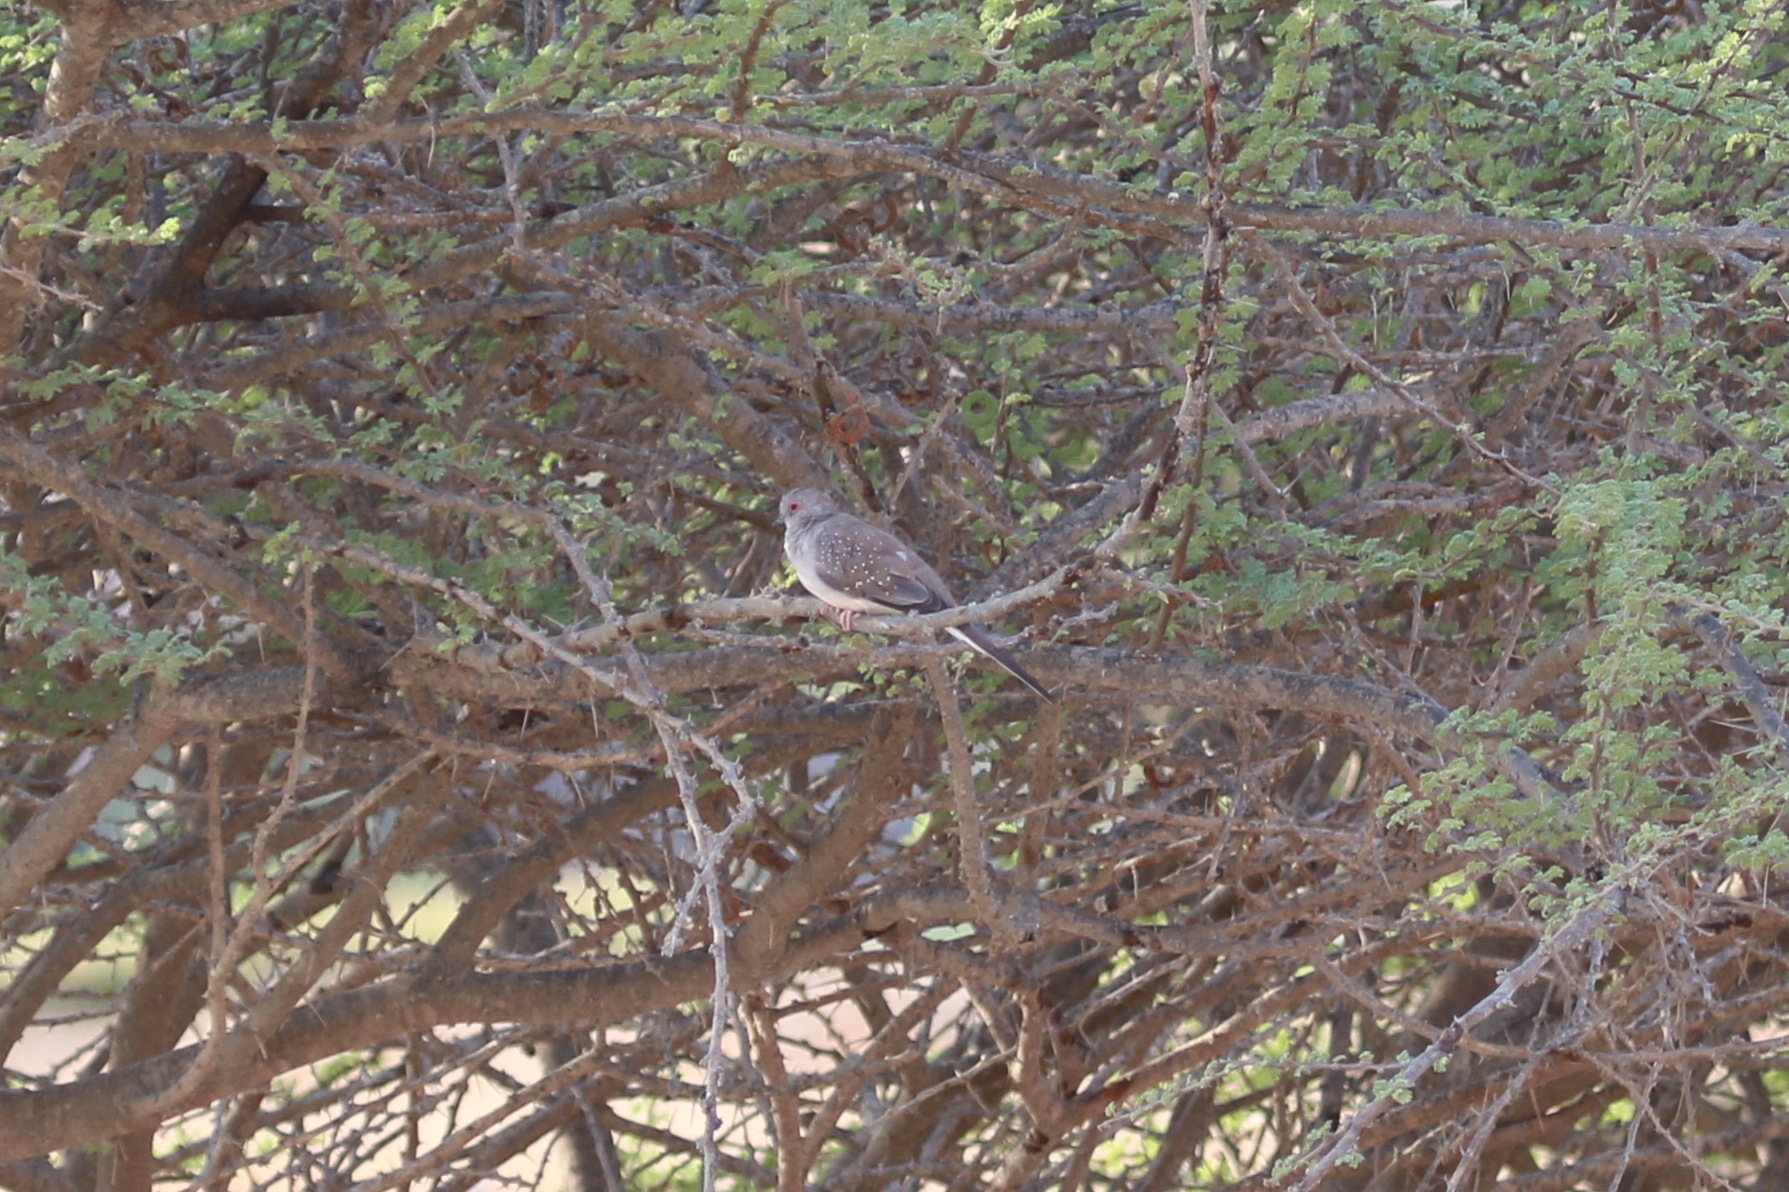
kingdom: Animalia
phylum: Chordata
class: Aves
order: Columbiformes
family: Columbidae
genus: Geopelia
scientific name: Geopelia cuneata
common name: Diamond dove
